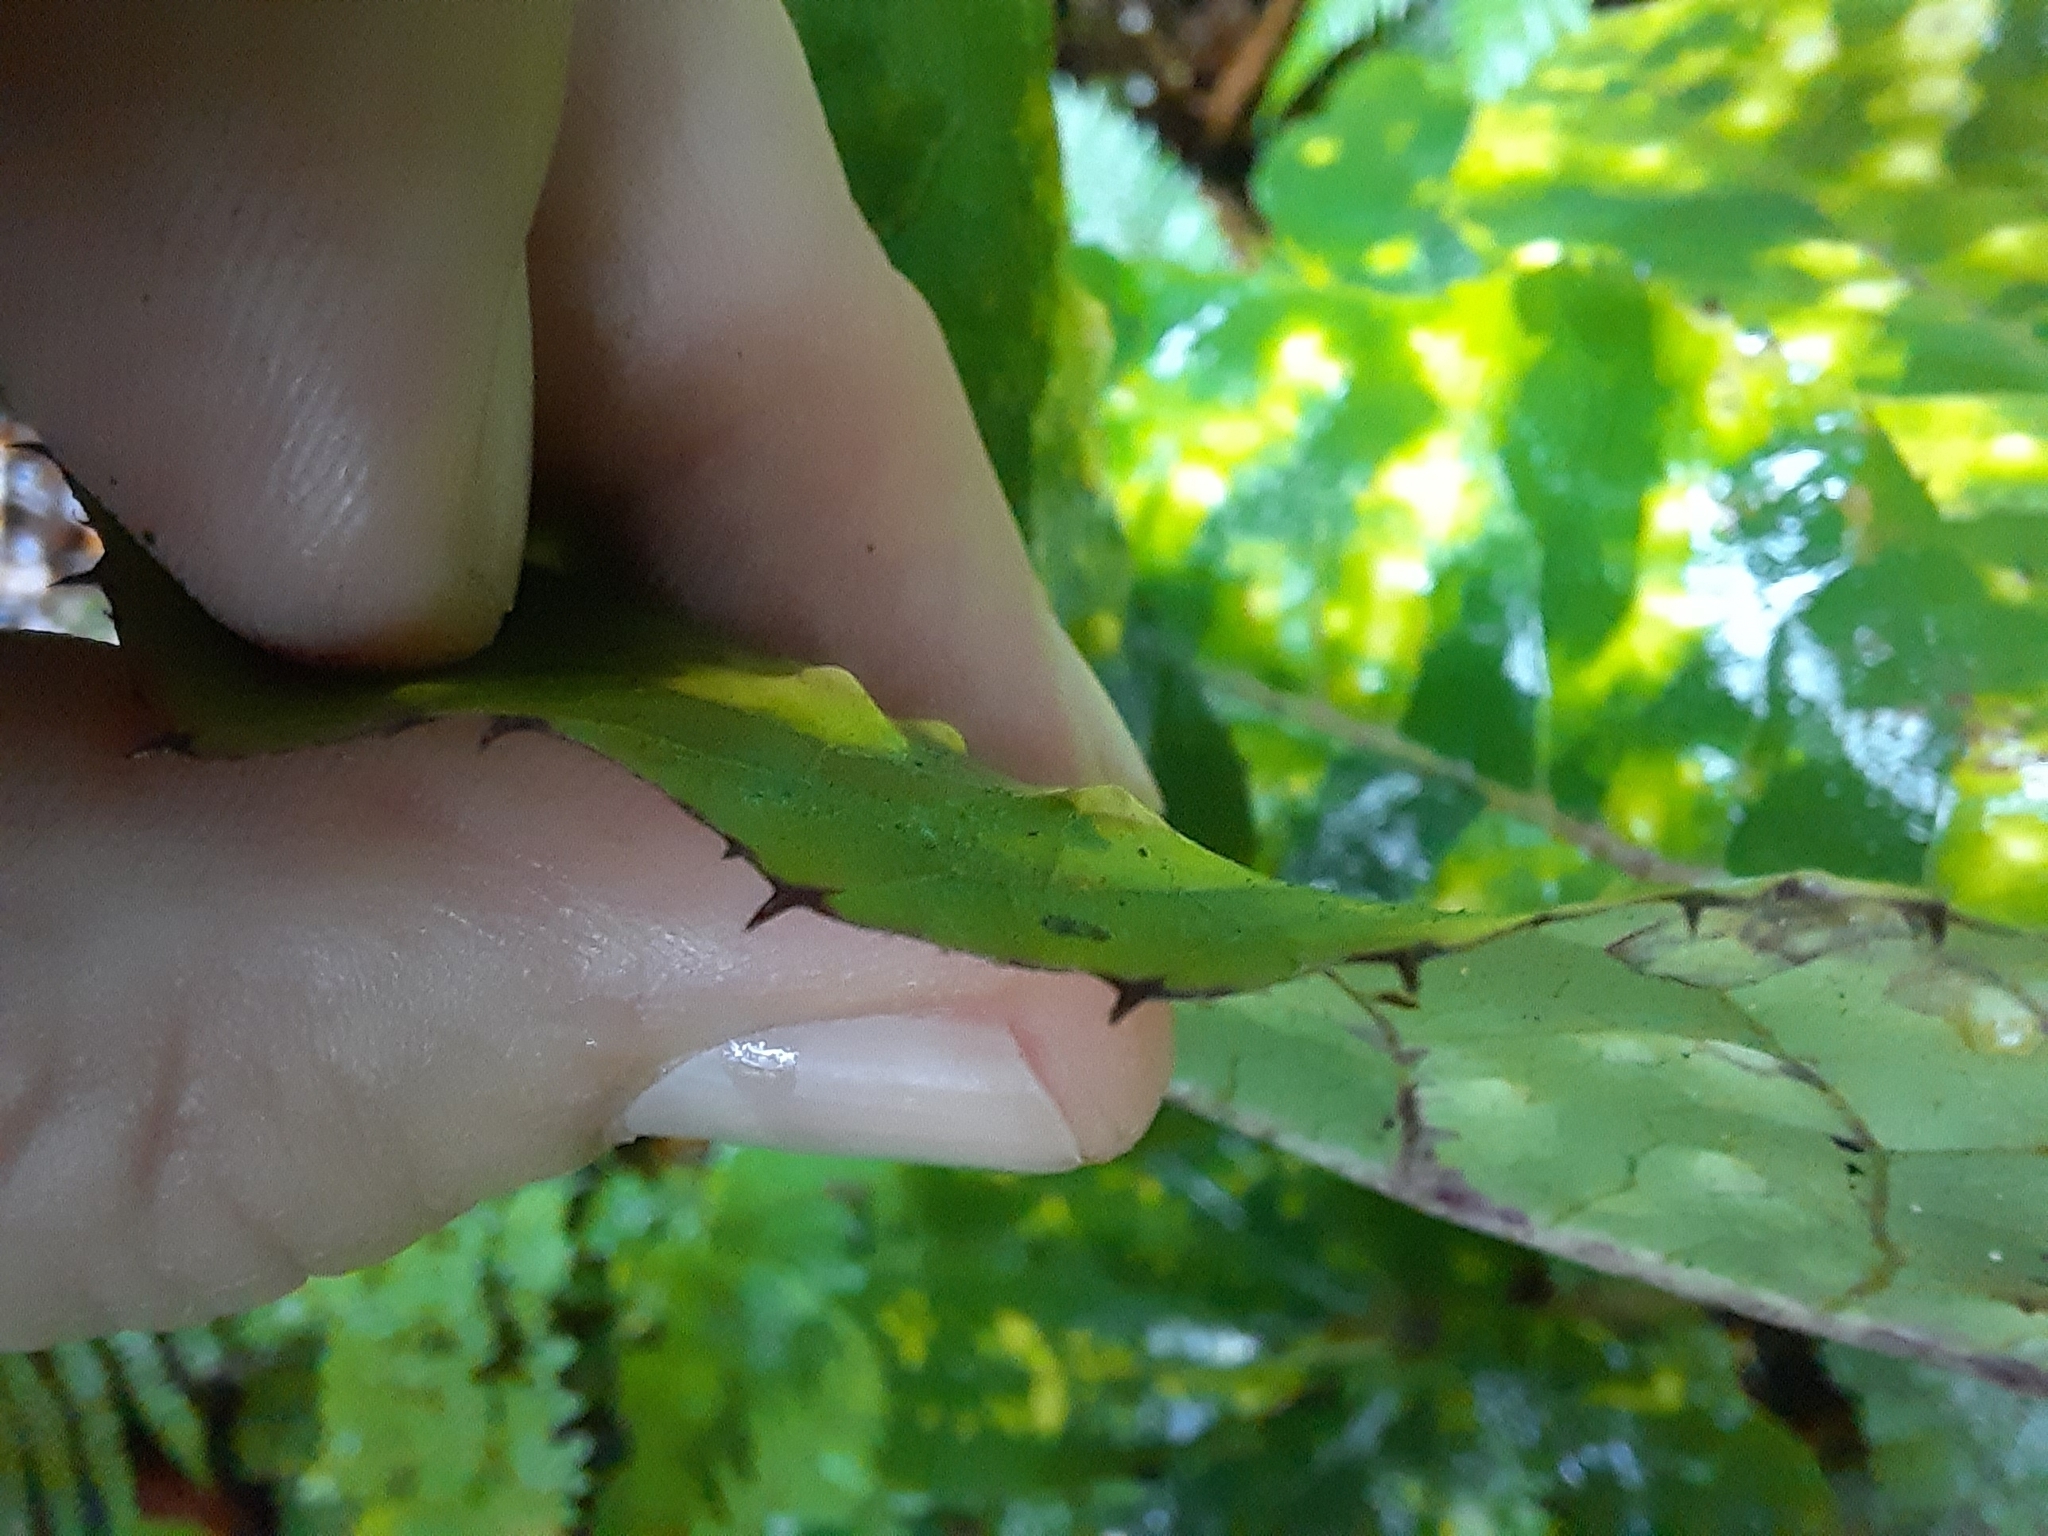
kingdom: Animalia
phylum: Arthropoda
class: Insecta
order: Hemiptera
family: Triozidae
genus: Powellia
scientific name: Powellia
